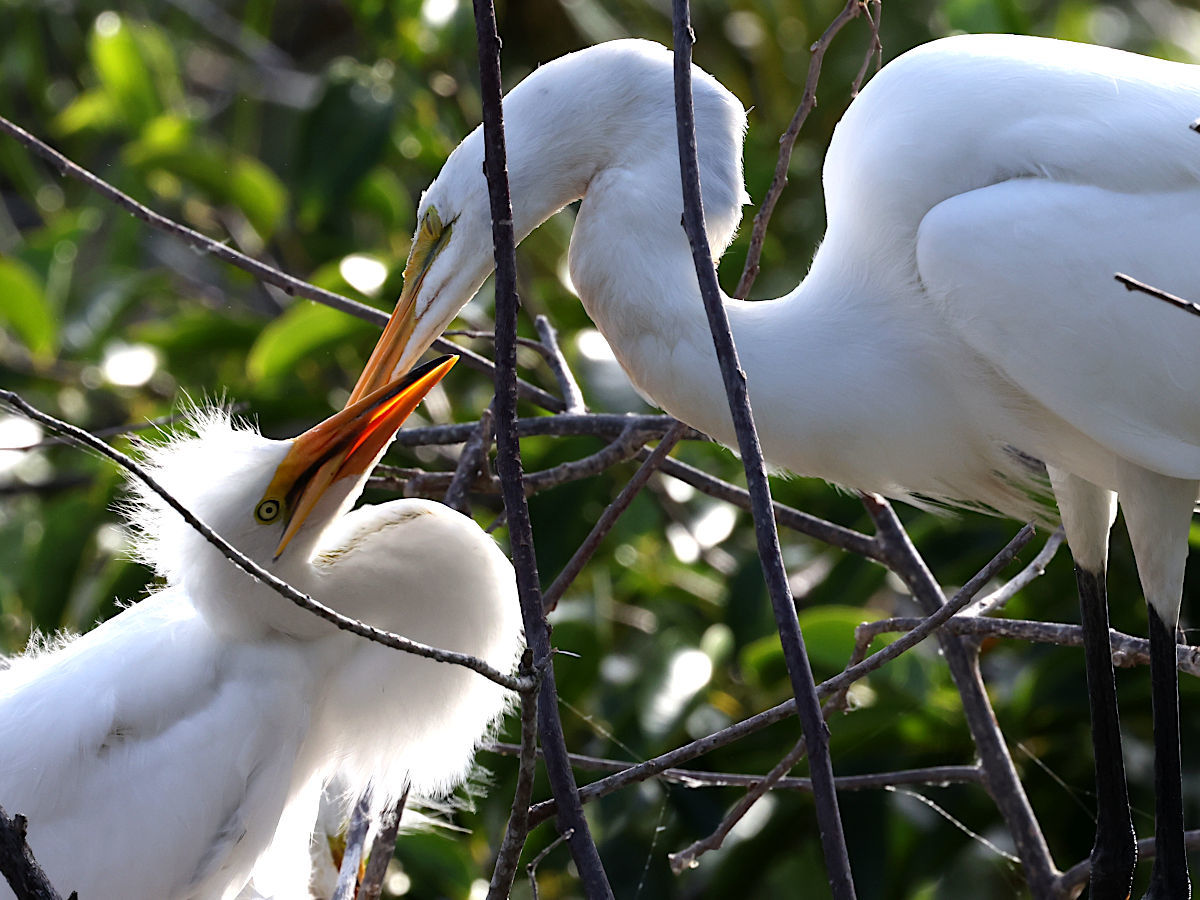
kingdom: Animalia
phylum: Chordata
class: Aves
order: Pelecaniformes
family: Ardeidae
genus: Ardea
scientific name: Ardea alba
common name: Great egret
